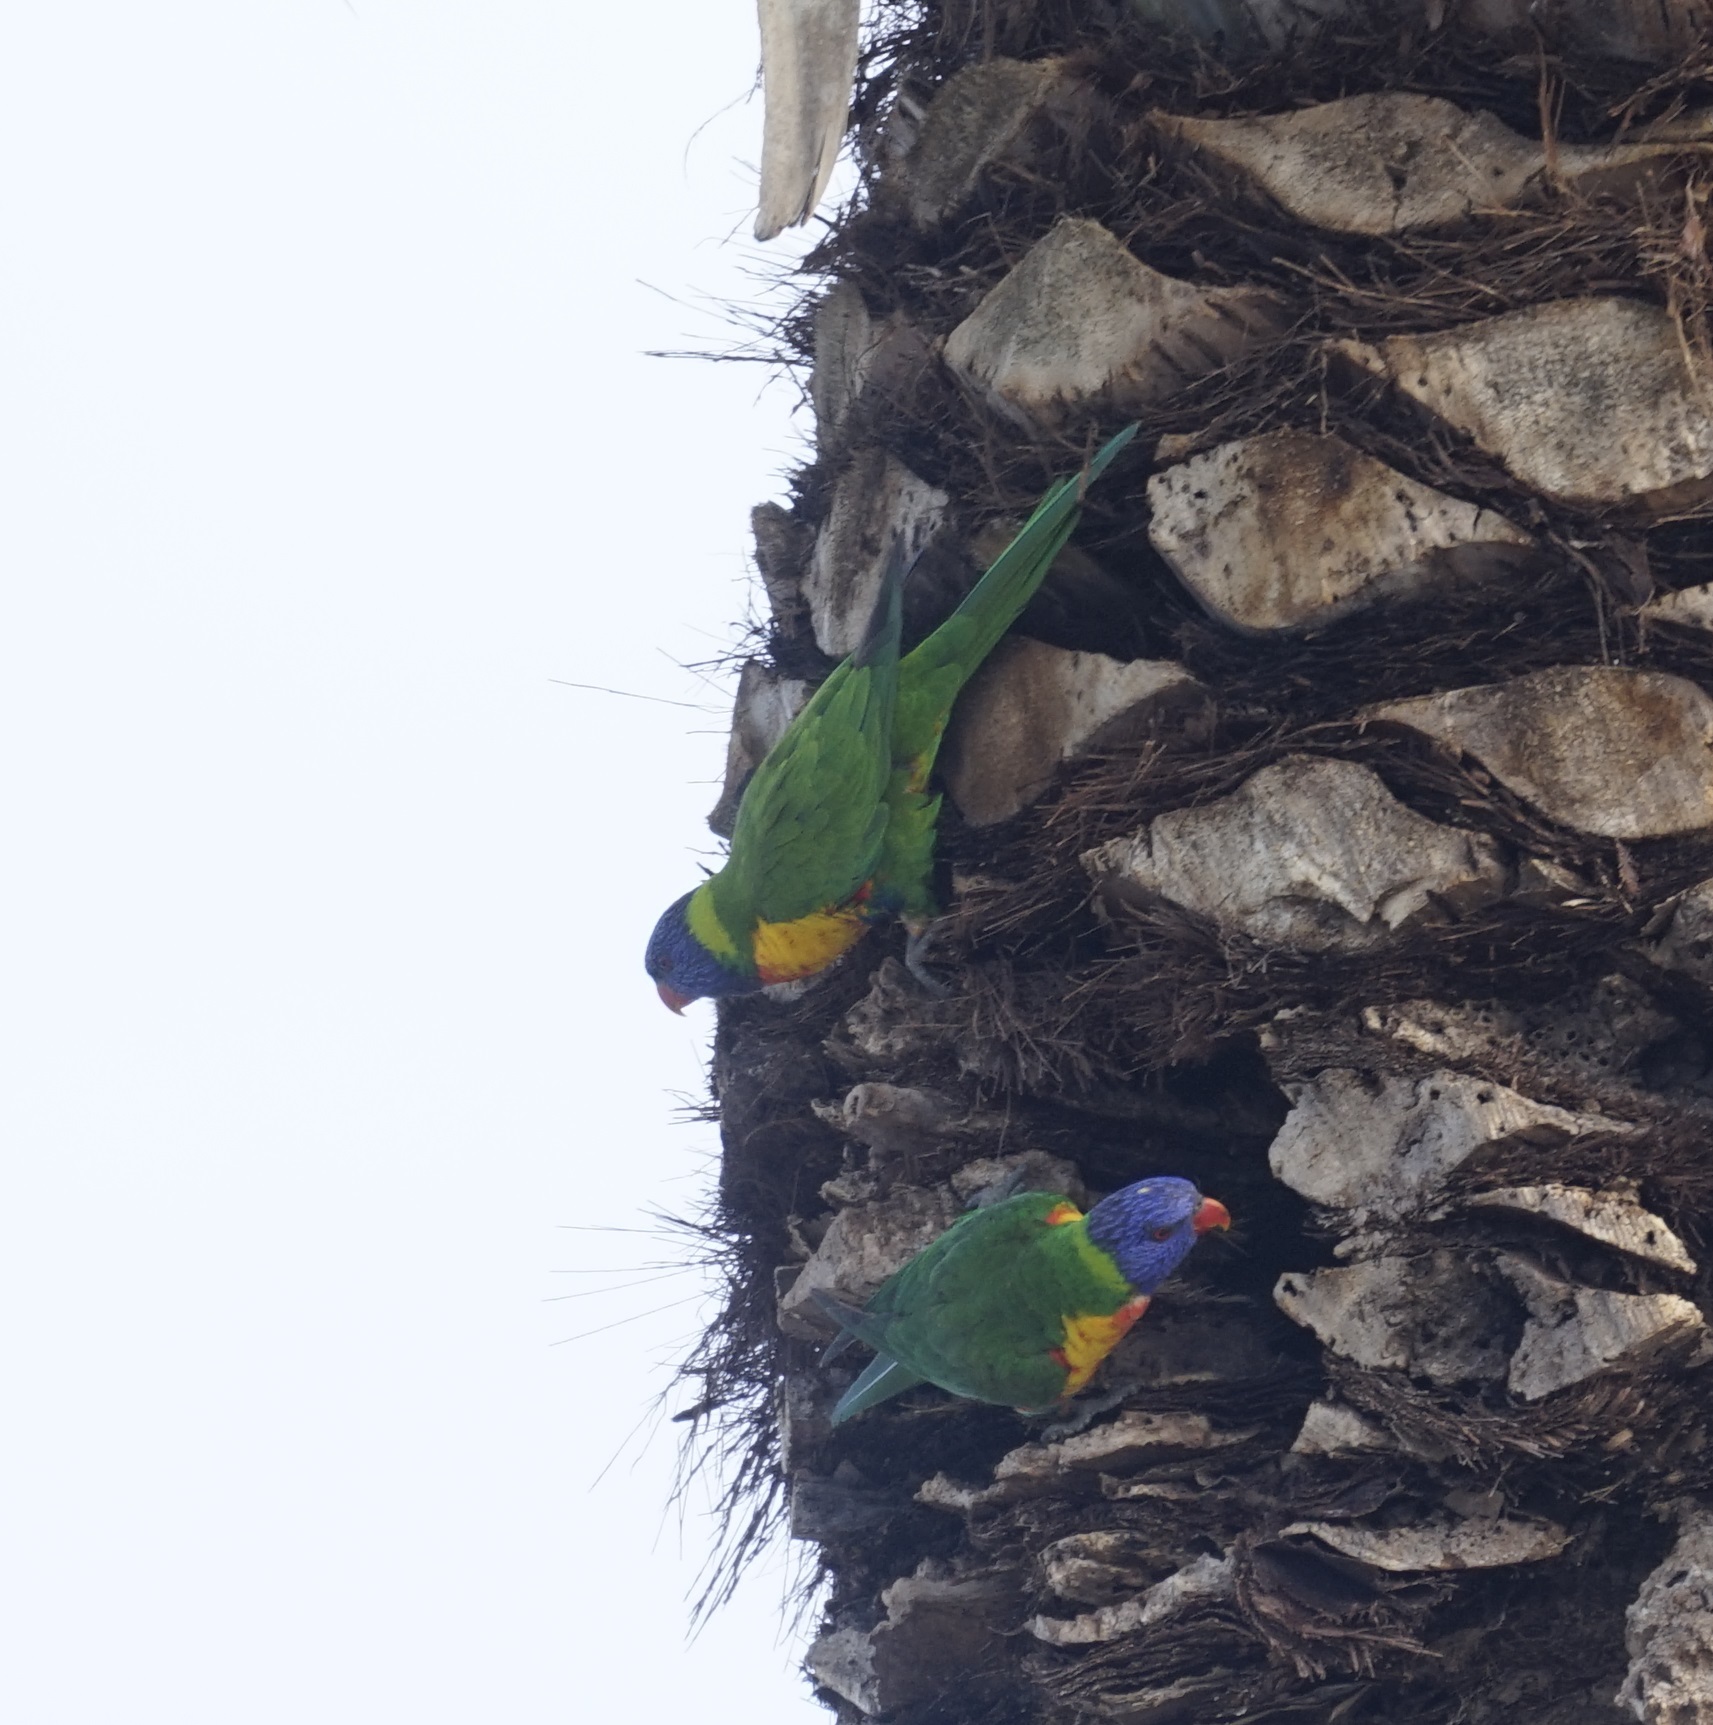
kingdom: Animalia
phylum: Chordata
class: Aves
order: Psittaciformes
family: Psittacidae
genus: Trichoglossus
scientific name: Trichoglossus haematodus
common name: Coconut lorikeet
